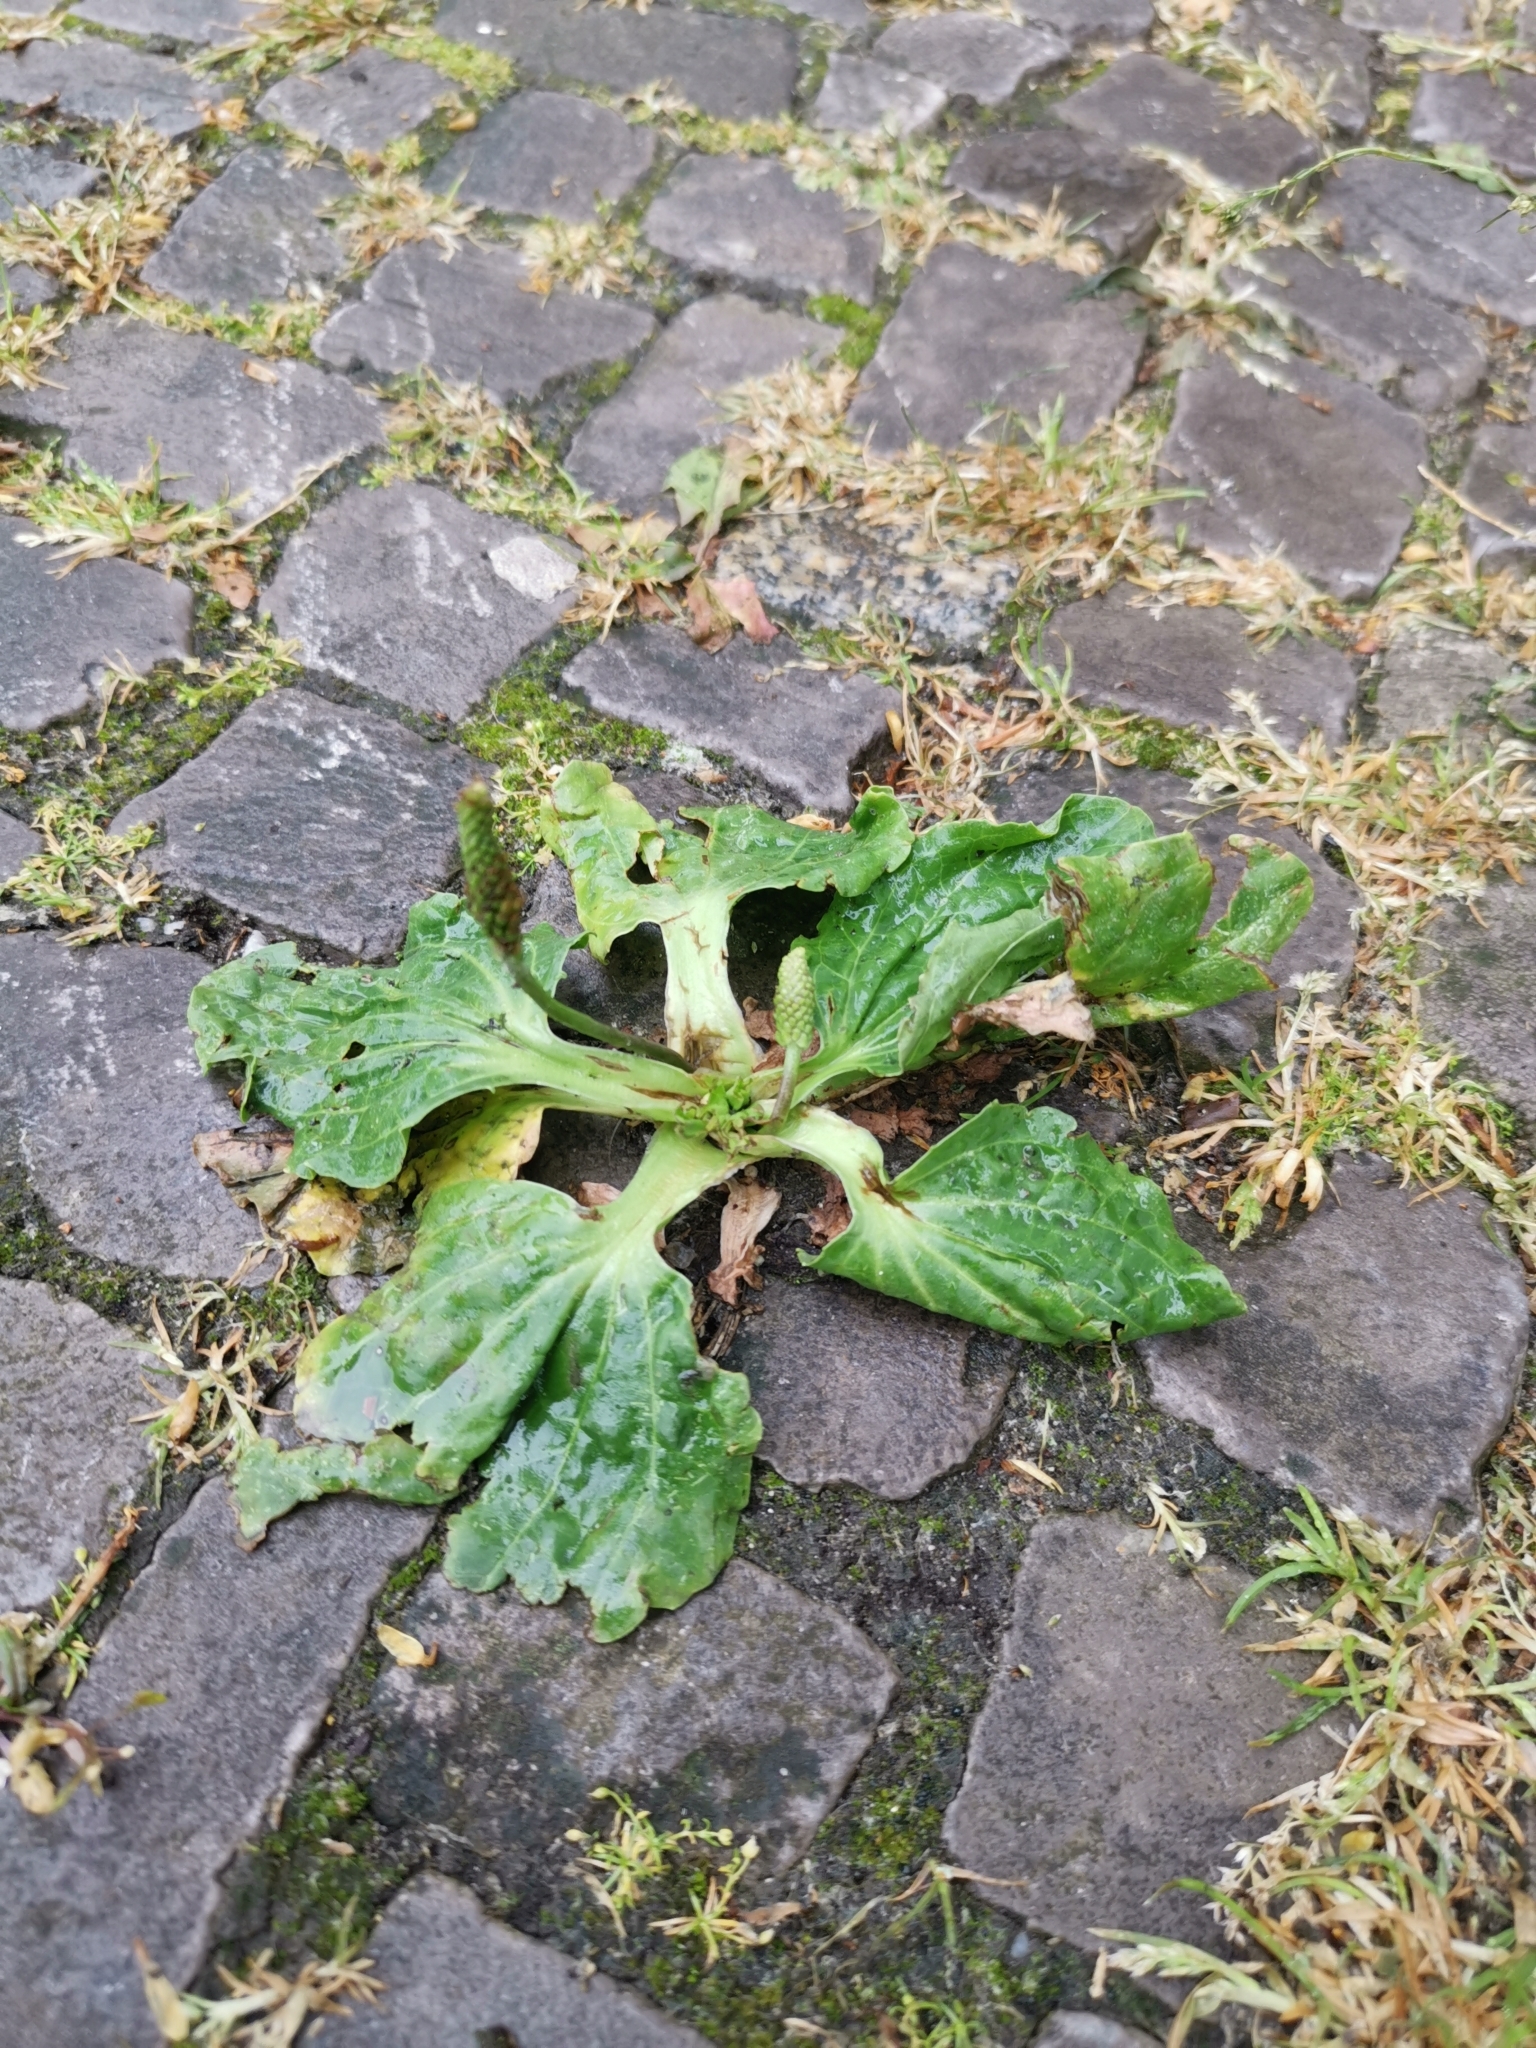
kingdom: Plantae
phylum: Tracheophyta
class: Magnoliopsida
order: Lamiales
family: Plantaginaceae
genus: Plantago
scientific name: Plantago major
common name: Common plantain
